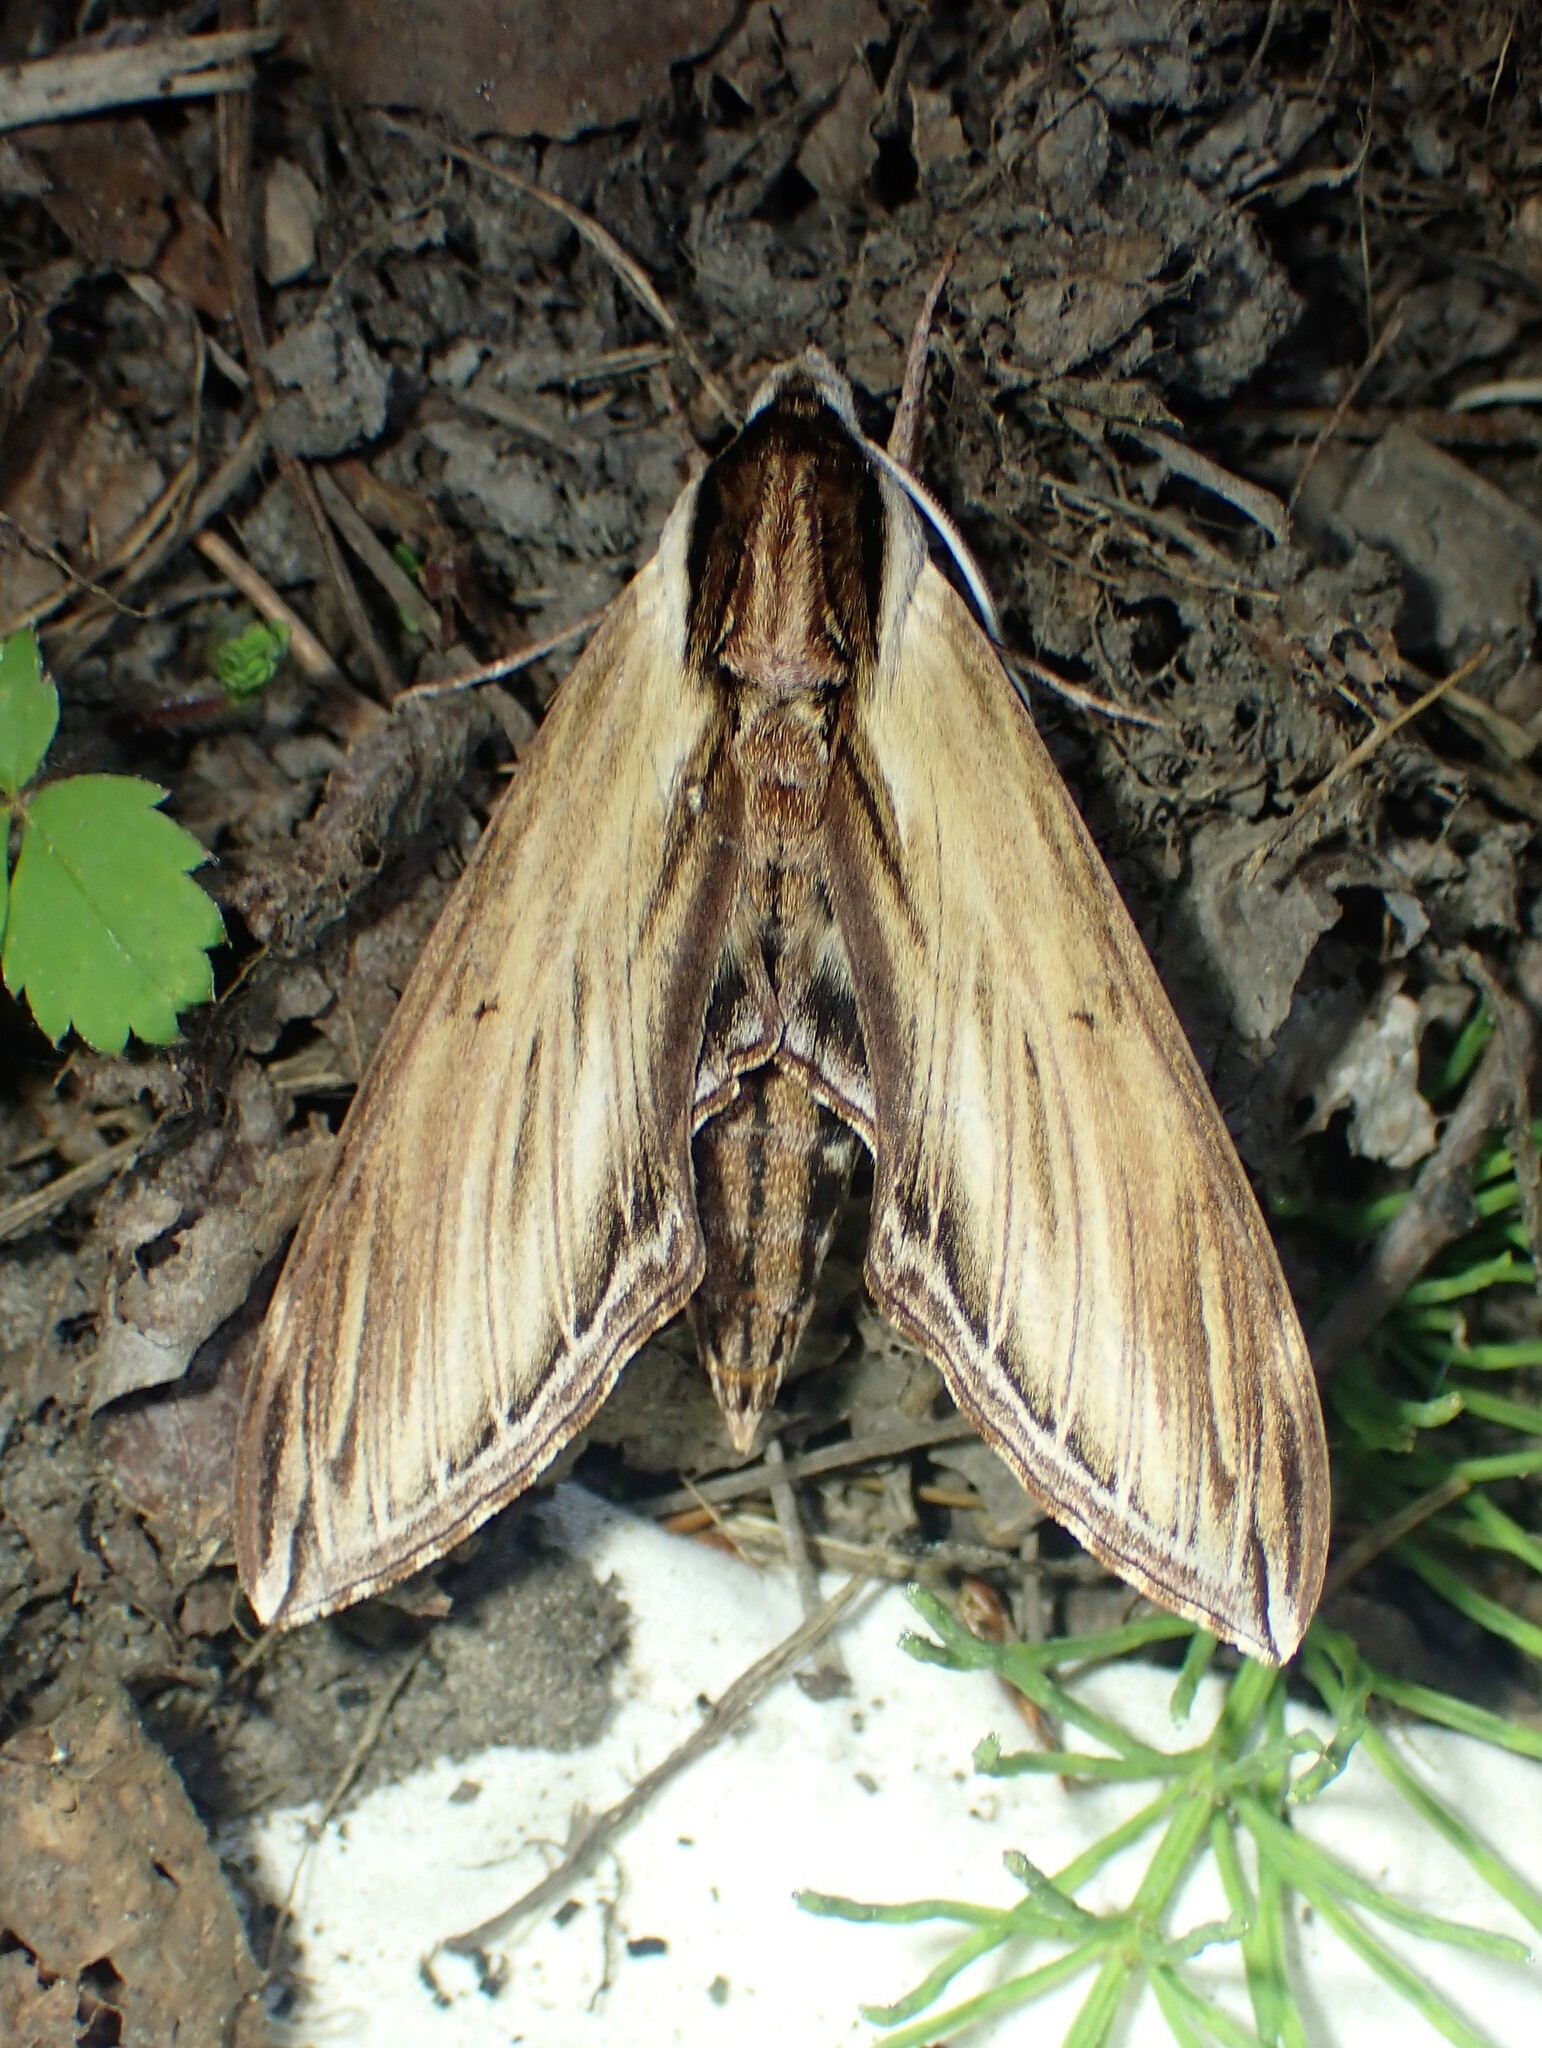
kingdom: Animalia
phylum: Arthropoda
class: Insecta
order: Lepidoptera
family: Sphingidae
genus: Sphinx
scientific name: Sphinx kalmiae
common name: Laurel sphinx
